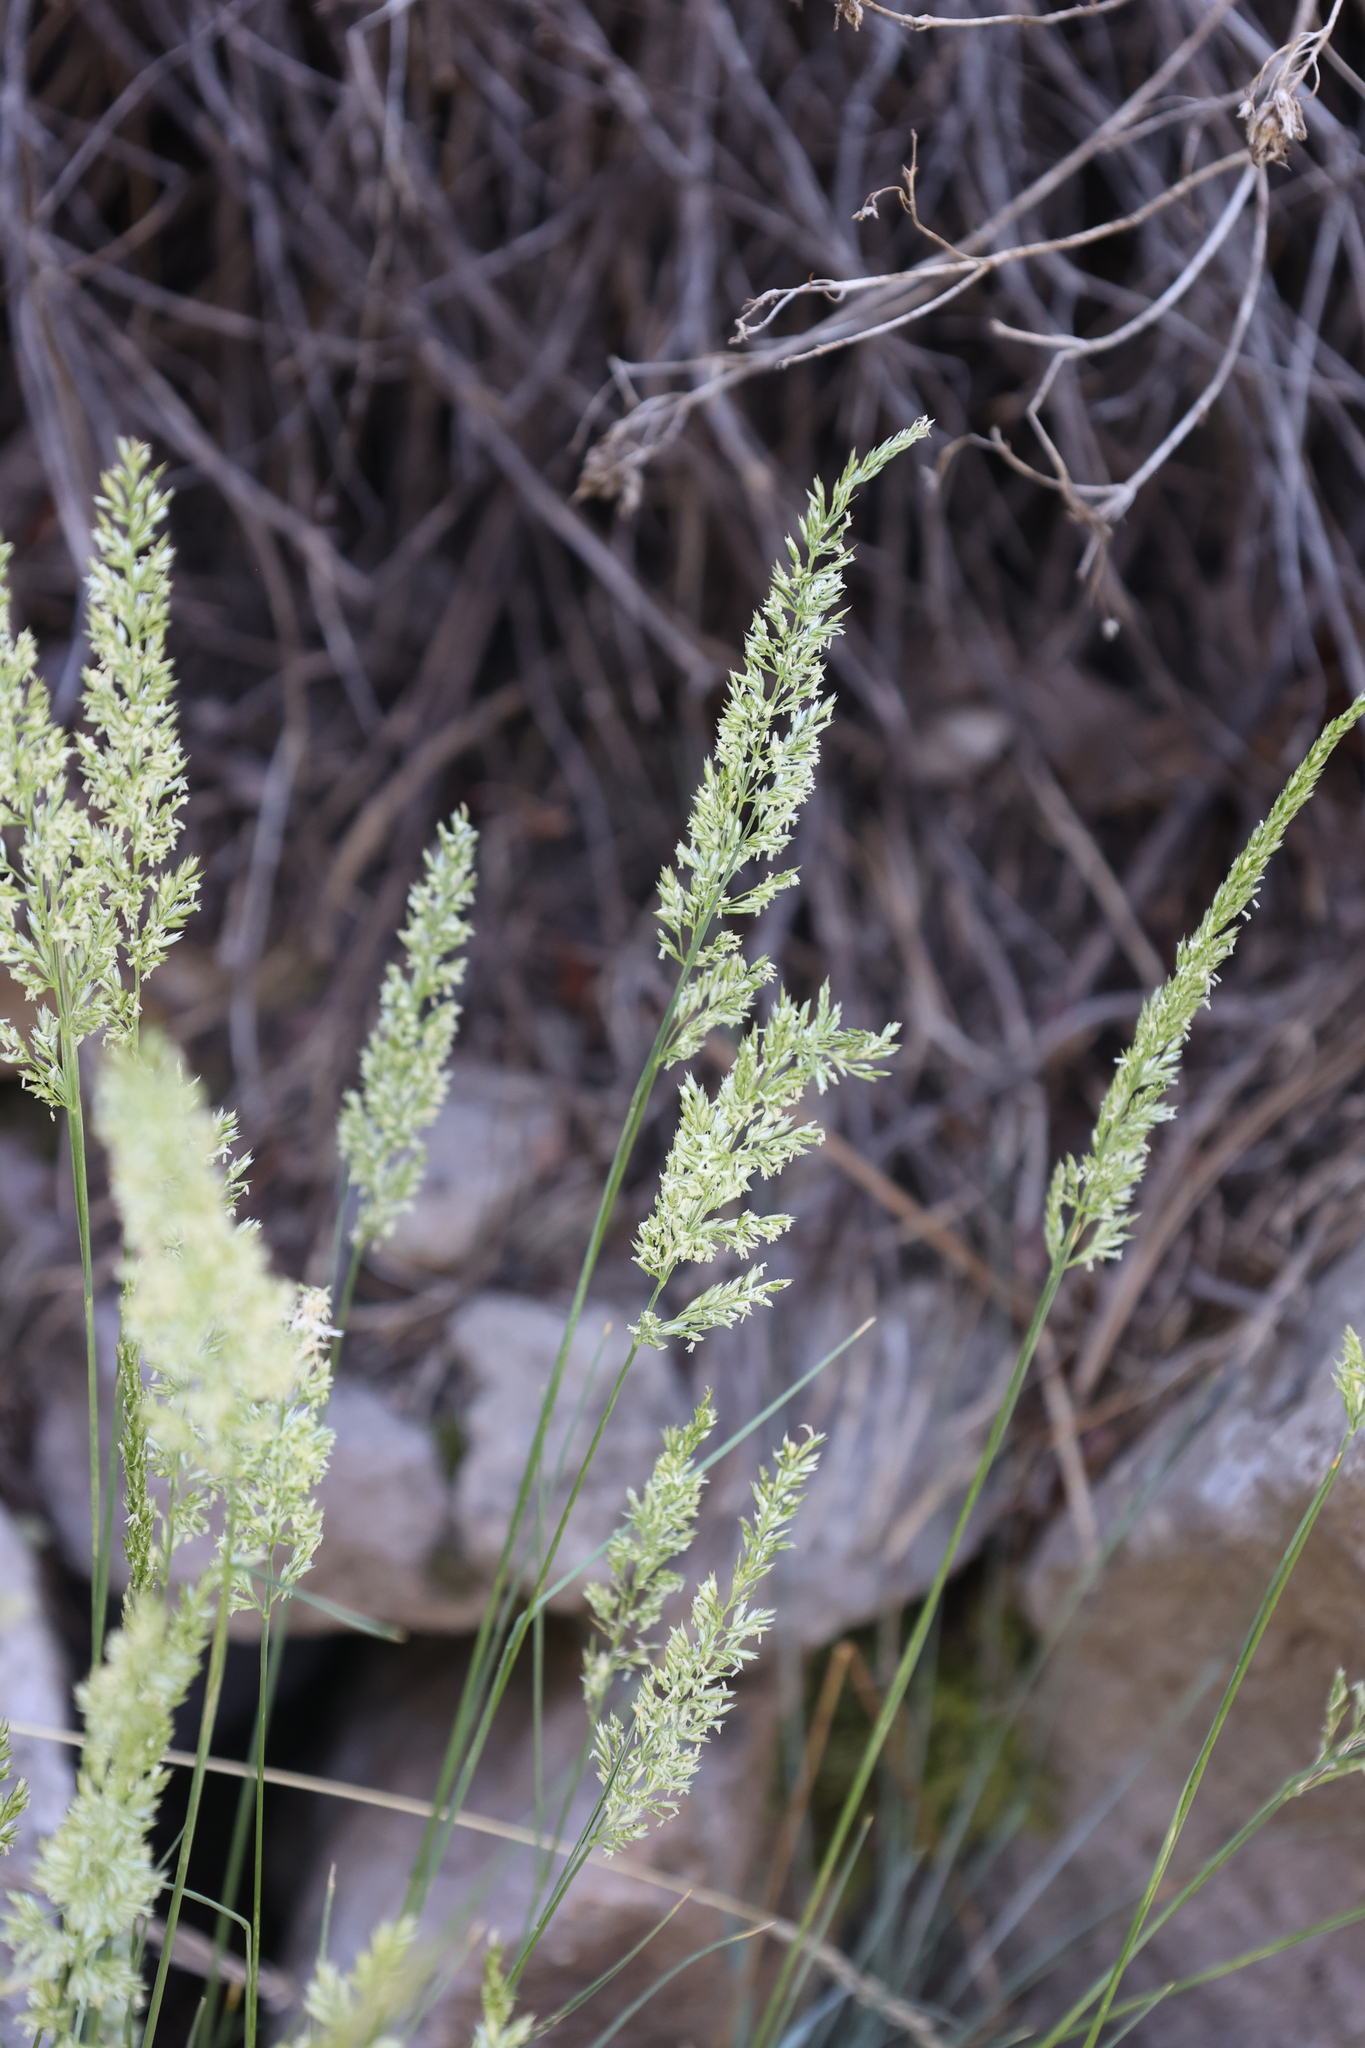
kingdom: Plantae
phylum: Tracheophyta
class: Liliopsida
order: Poales
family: Poaceae
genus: Koeleria
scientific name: Koeleria macrantha
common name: Crested hair-grass
